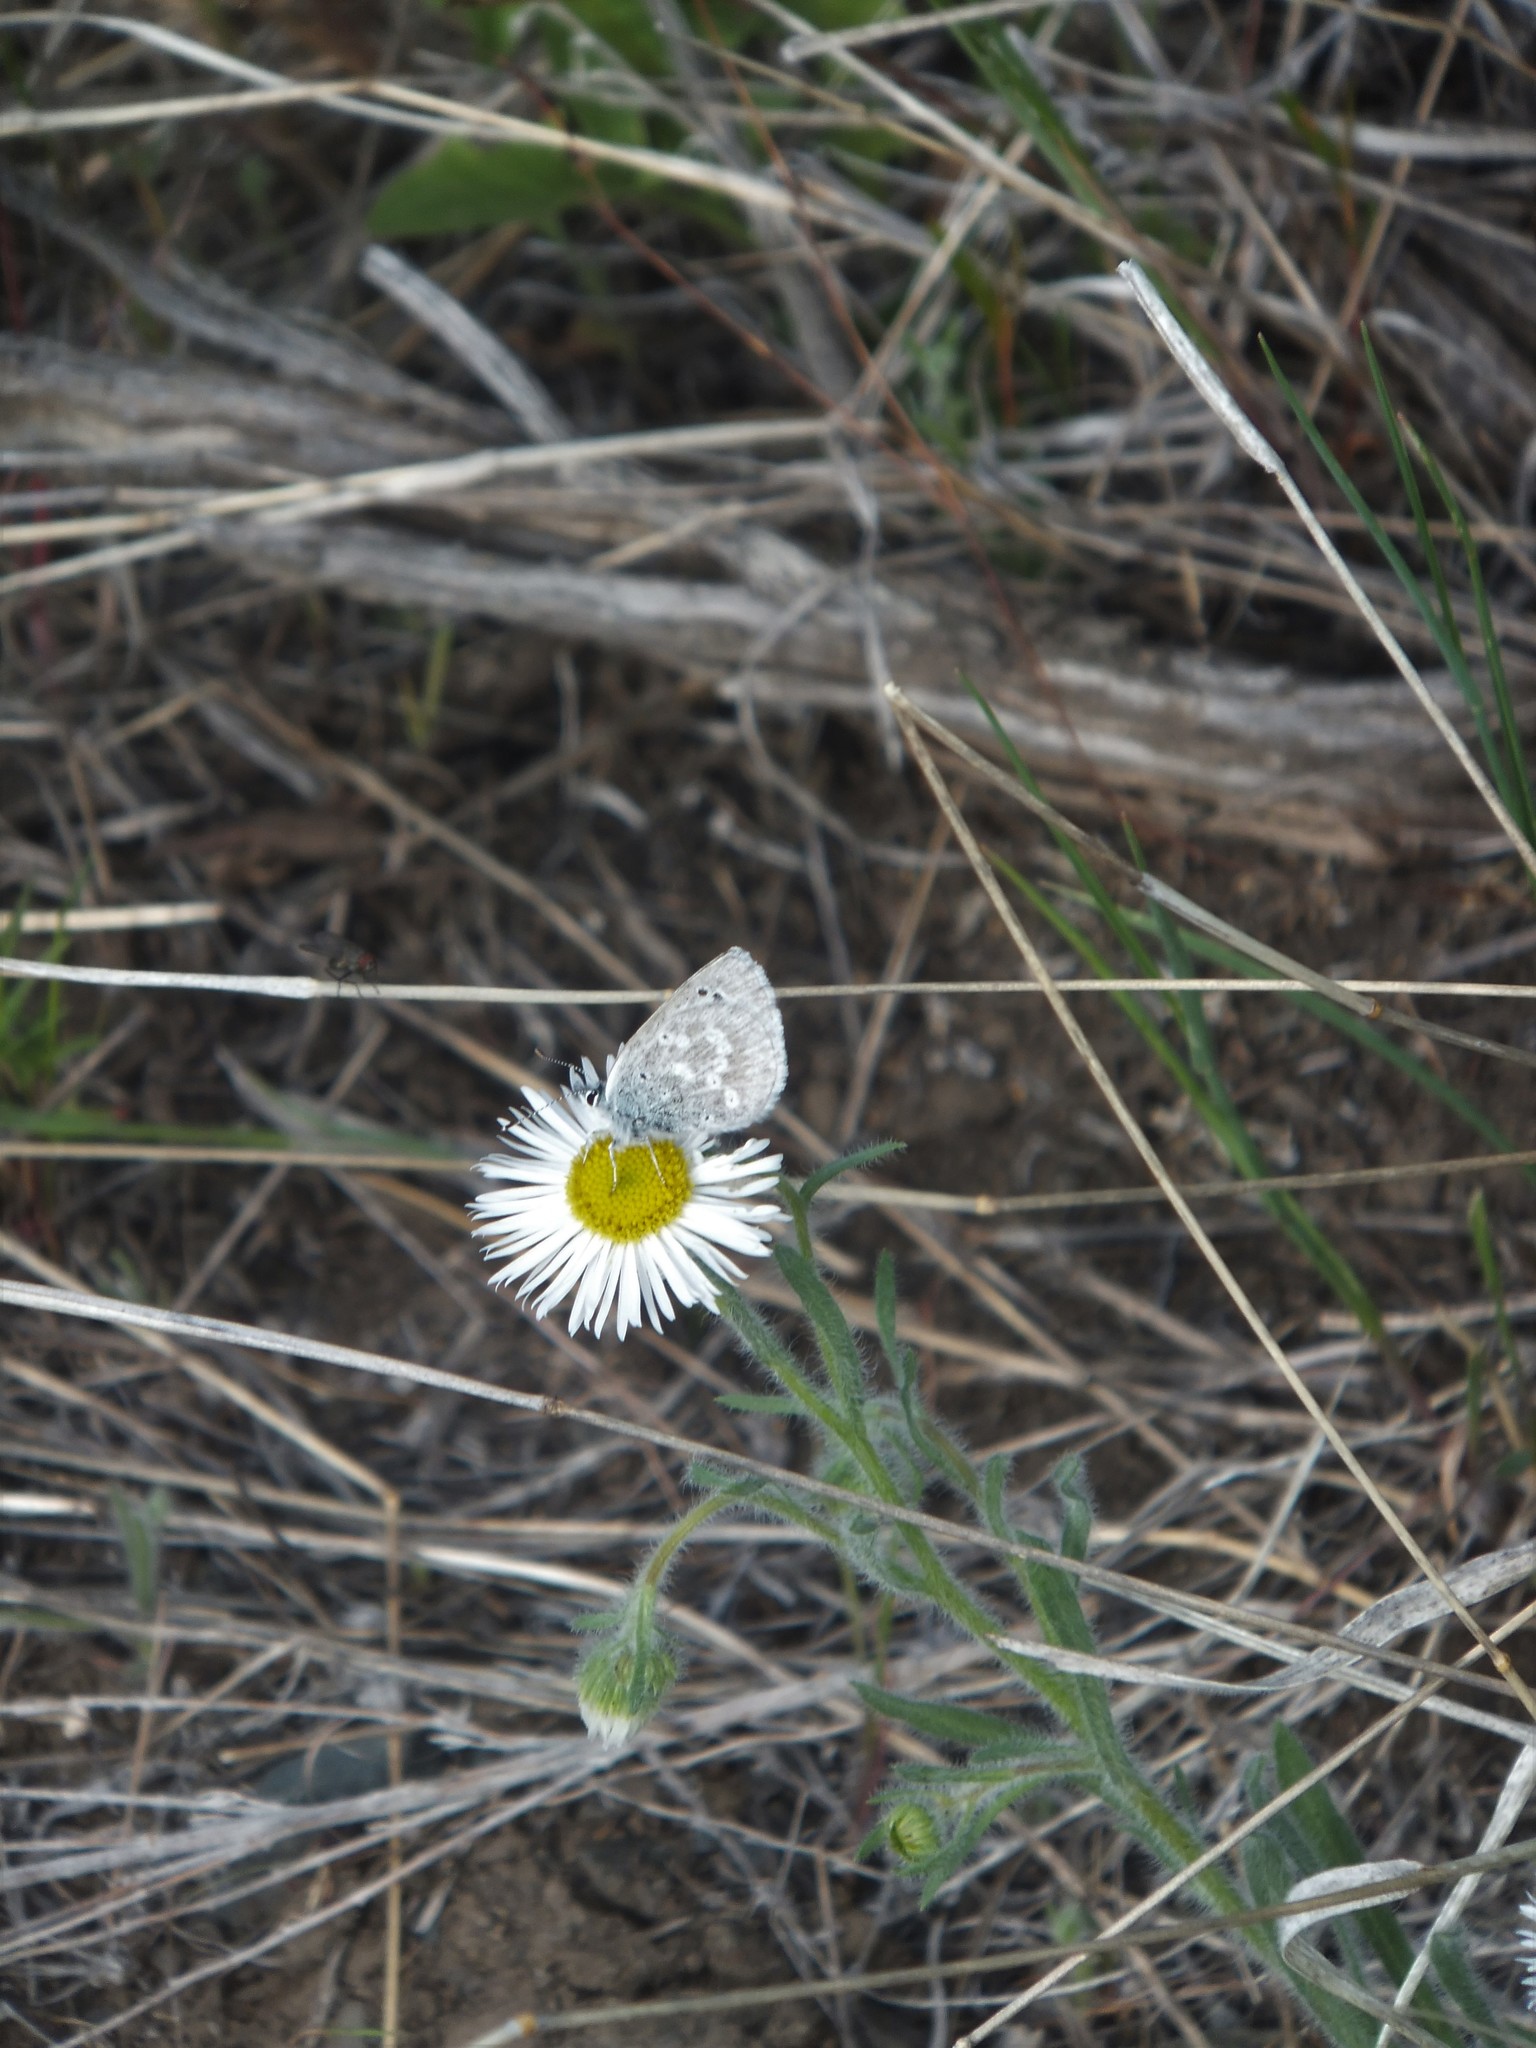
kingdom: Animalia
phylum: Arthropoda
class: Insecta
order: Lepidoptera
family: Lycaenidae
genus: Icaricia
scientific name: Icaricia icarioides
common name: Boisduval's blue
